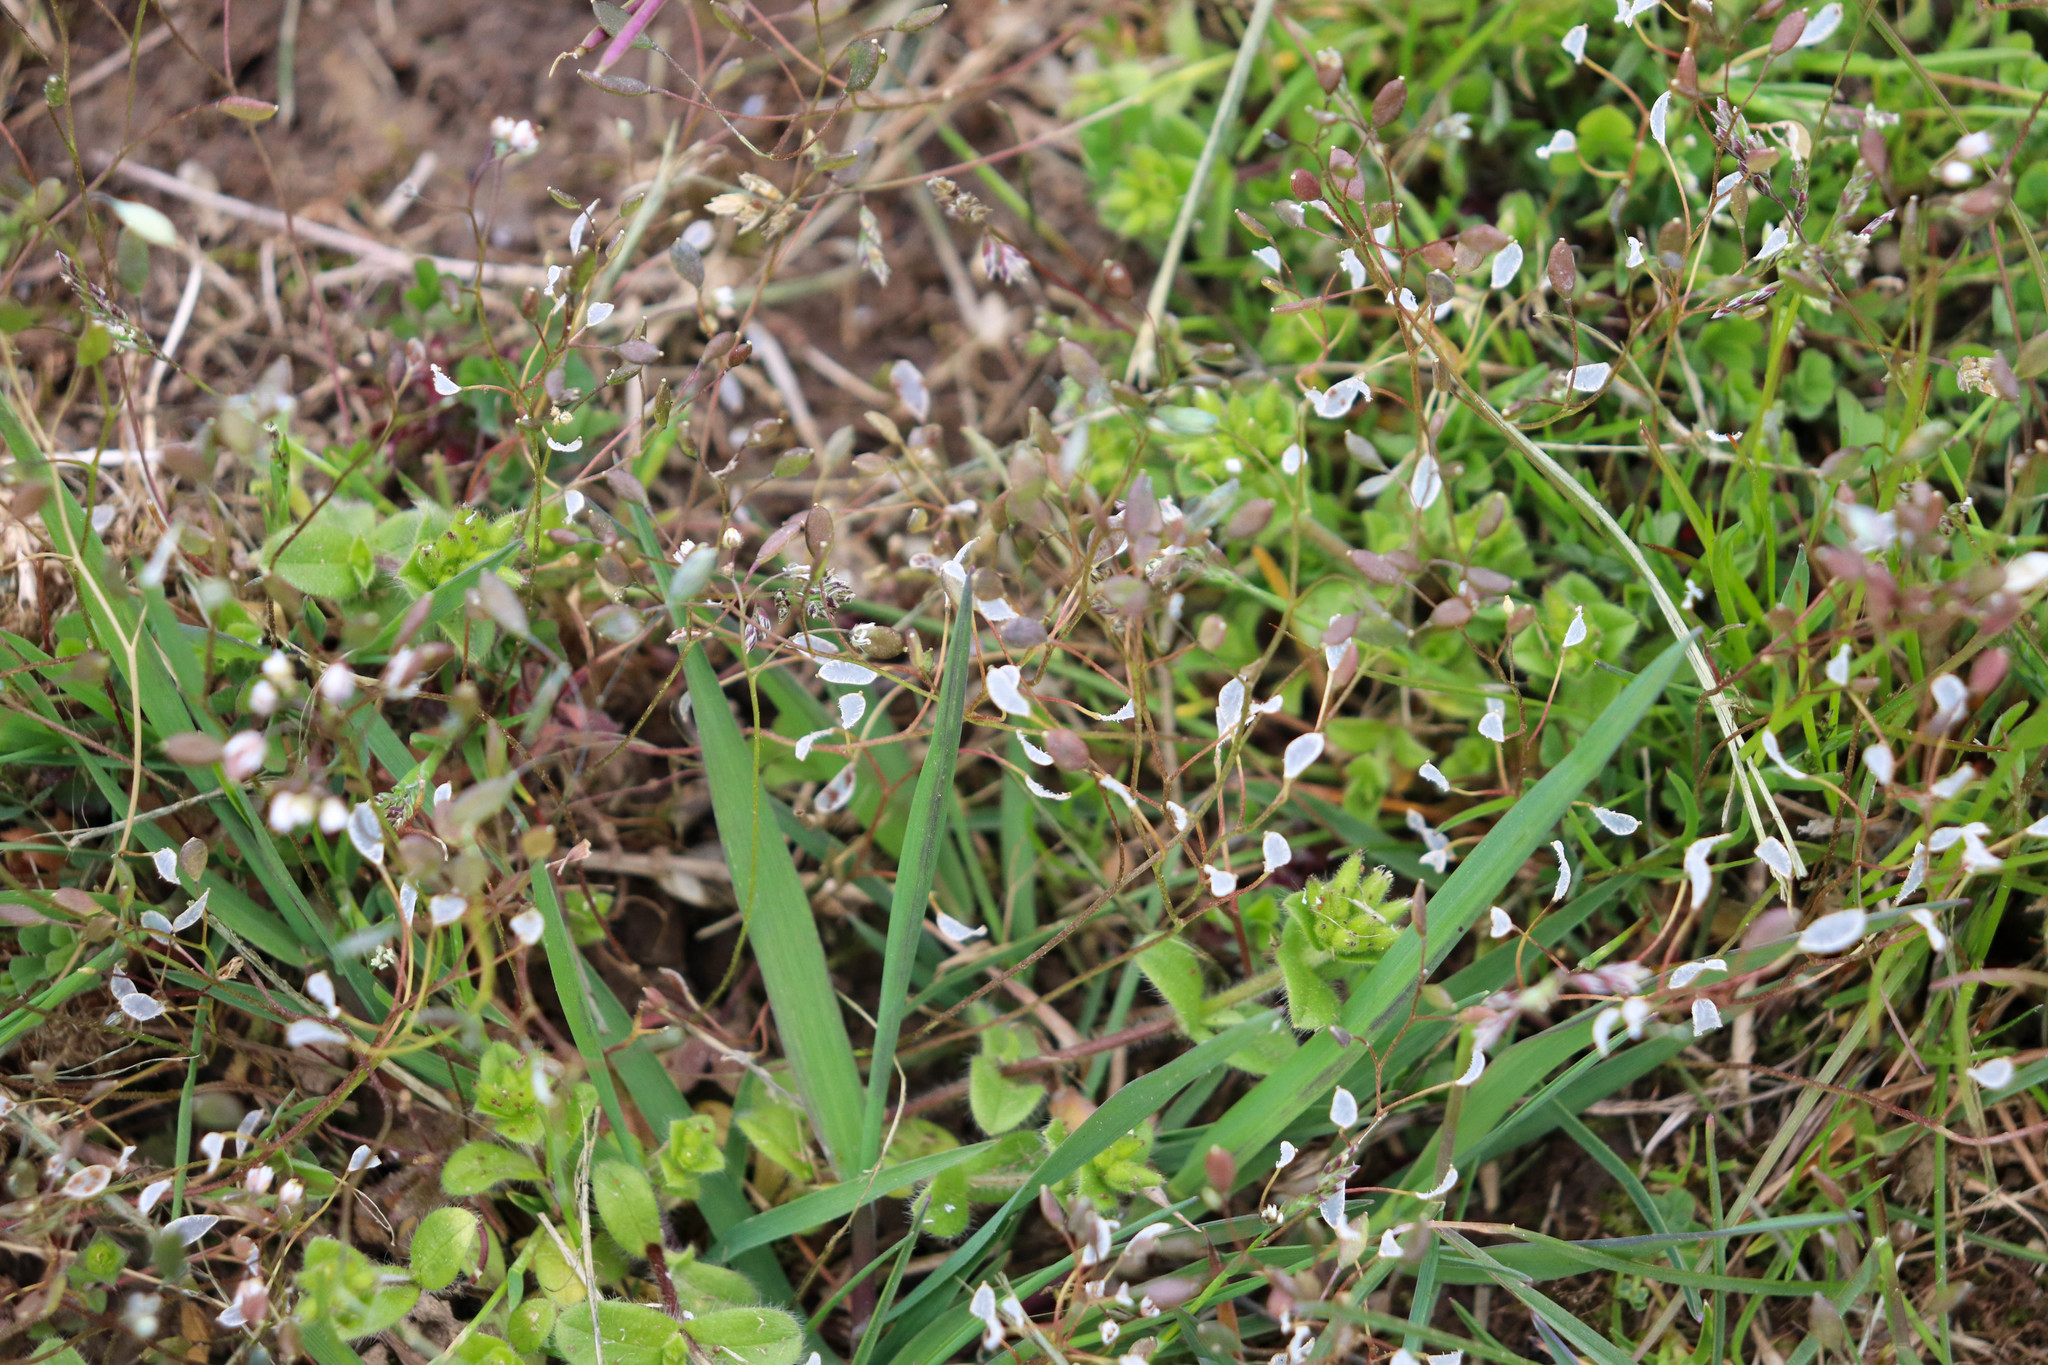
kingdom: Plantae
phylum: Tracheophyta
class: Magnoliopsida
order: Brassicales
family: Brassicaceae
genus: Draba
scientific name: Draba verna
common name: Spring draba
